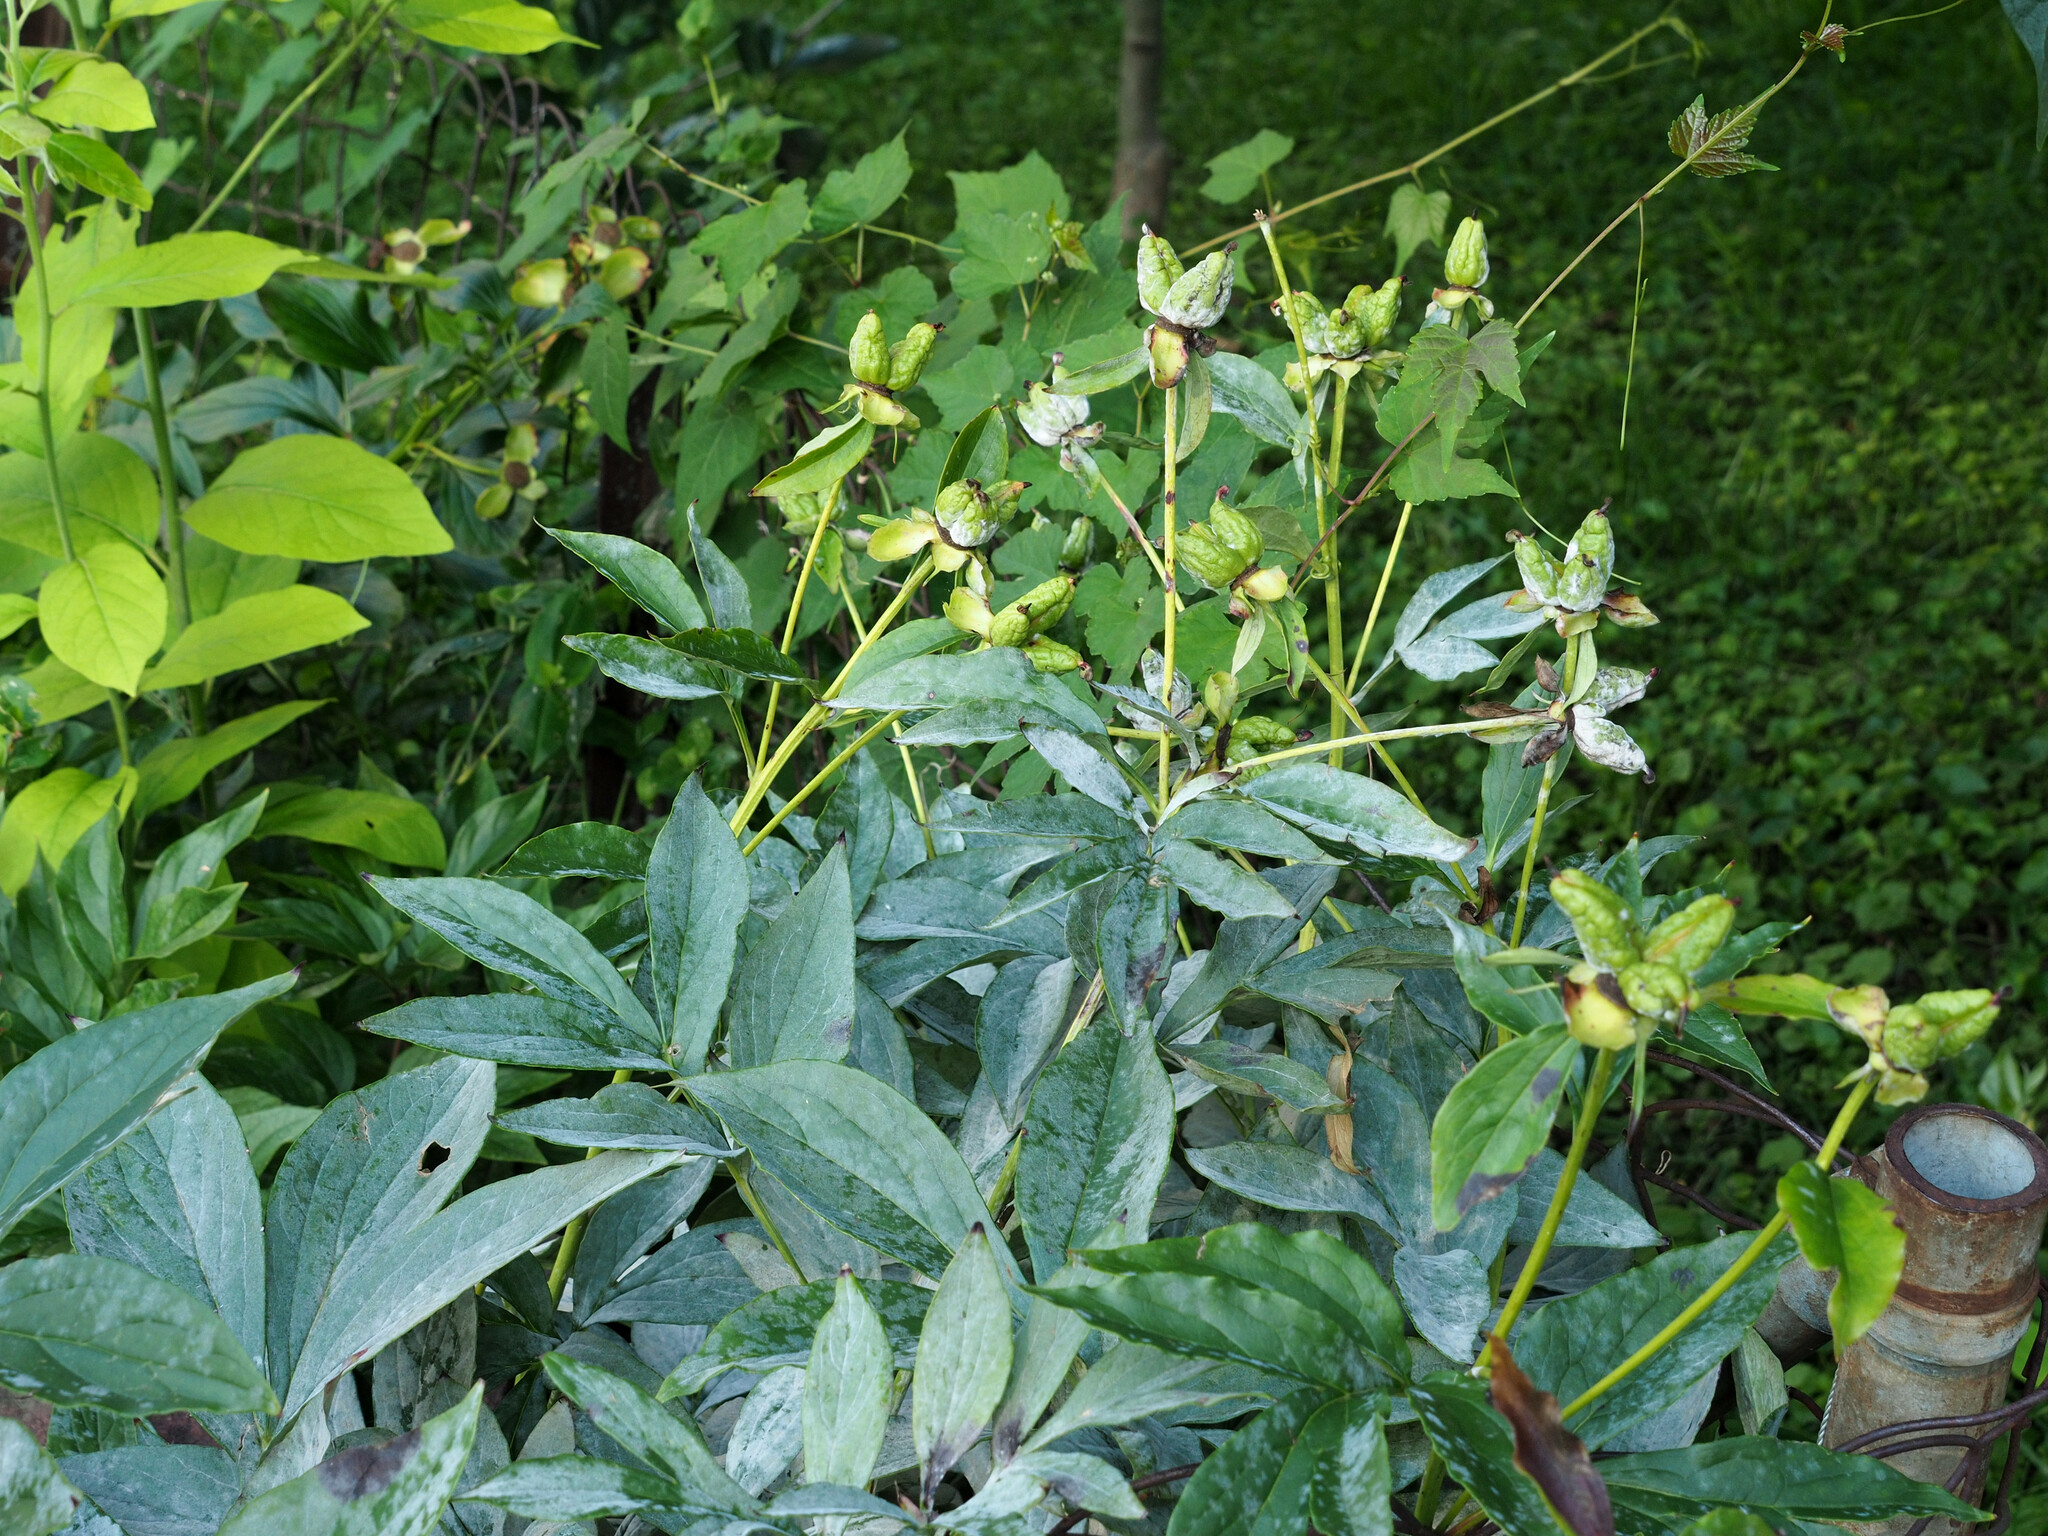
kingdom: Fungi
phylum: Ascomycota
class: Leotiomycetes
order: Helotiales
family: Erysiphaceae
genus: Erysiphe
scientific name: Erysiphe paeoniae
